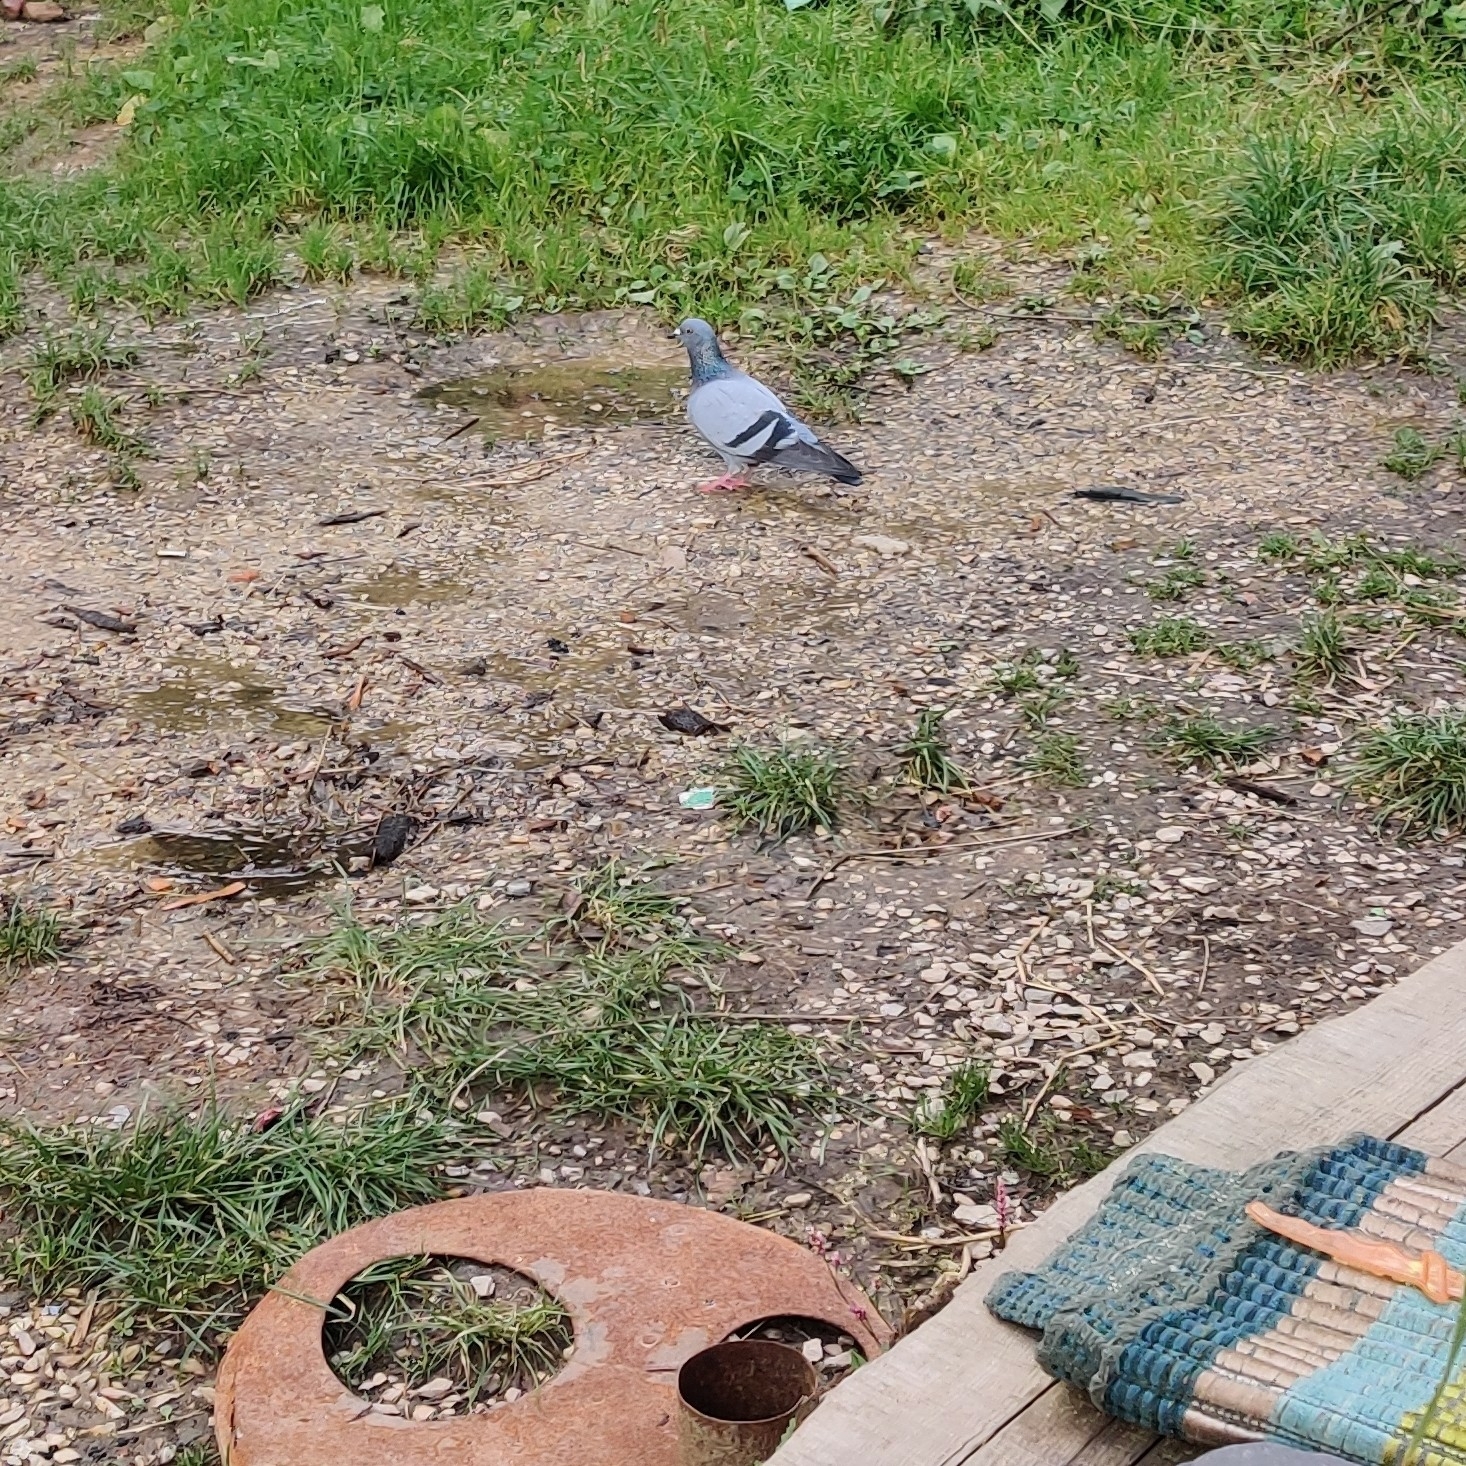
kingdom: Animalia
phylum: Chordata
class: Aves
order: Columbiformes
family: Columbidae
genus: Columba
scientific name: Columba livia
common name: Rock pigeon
